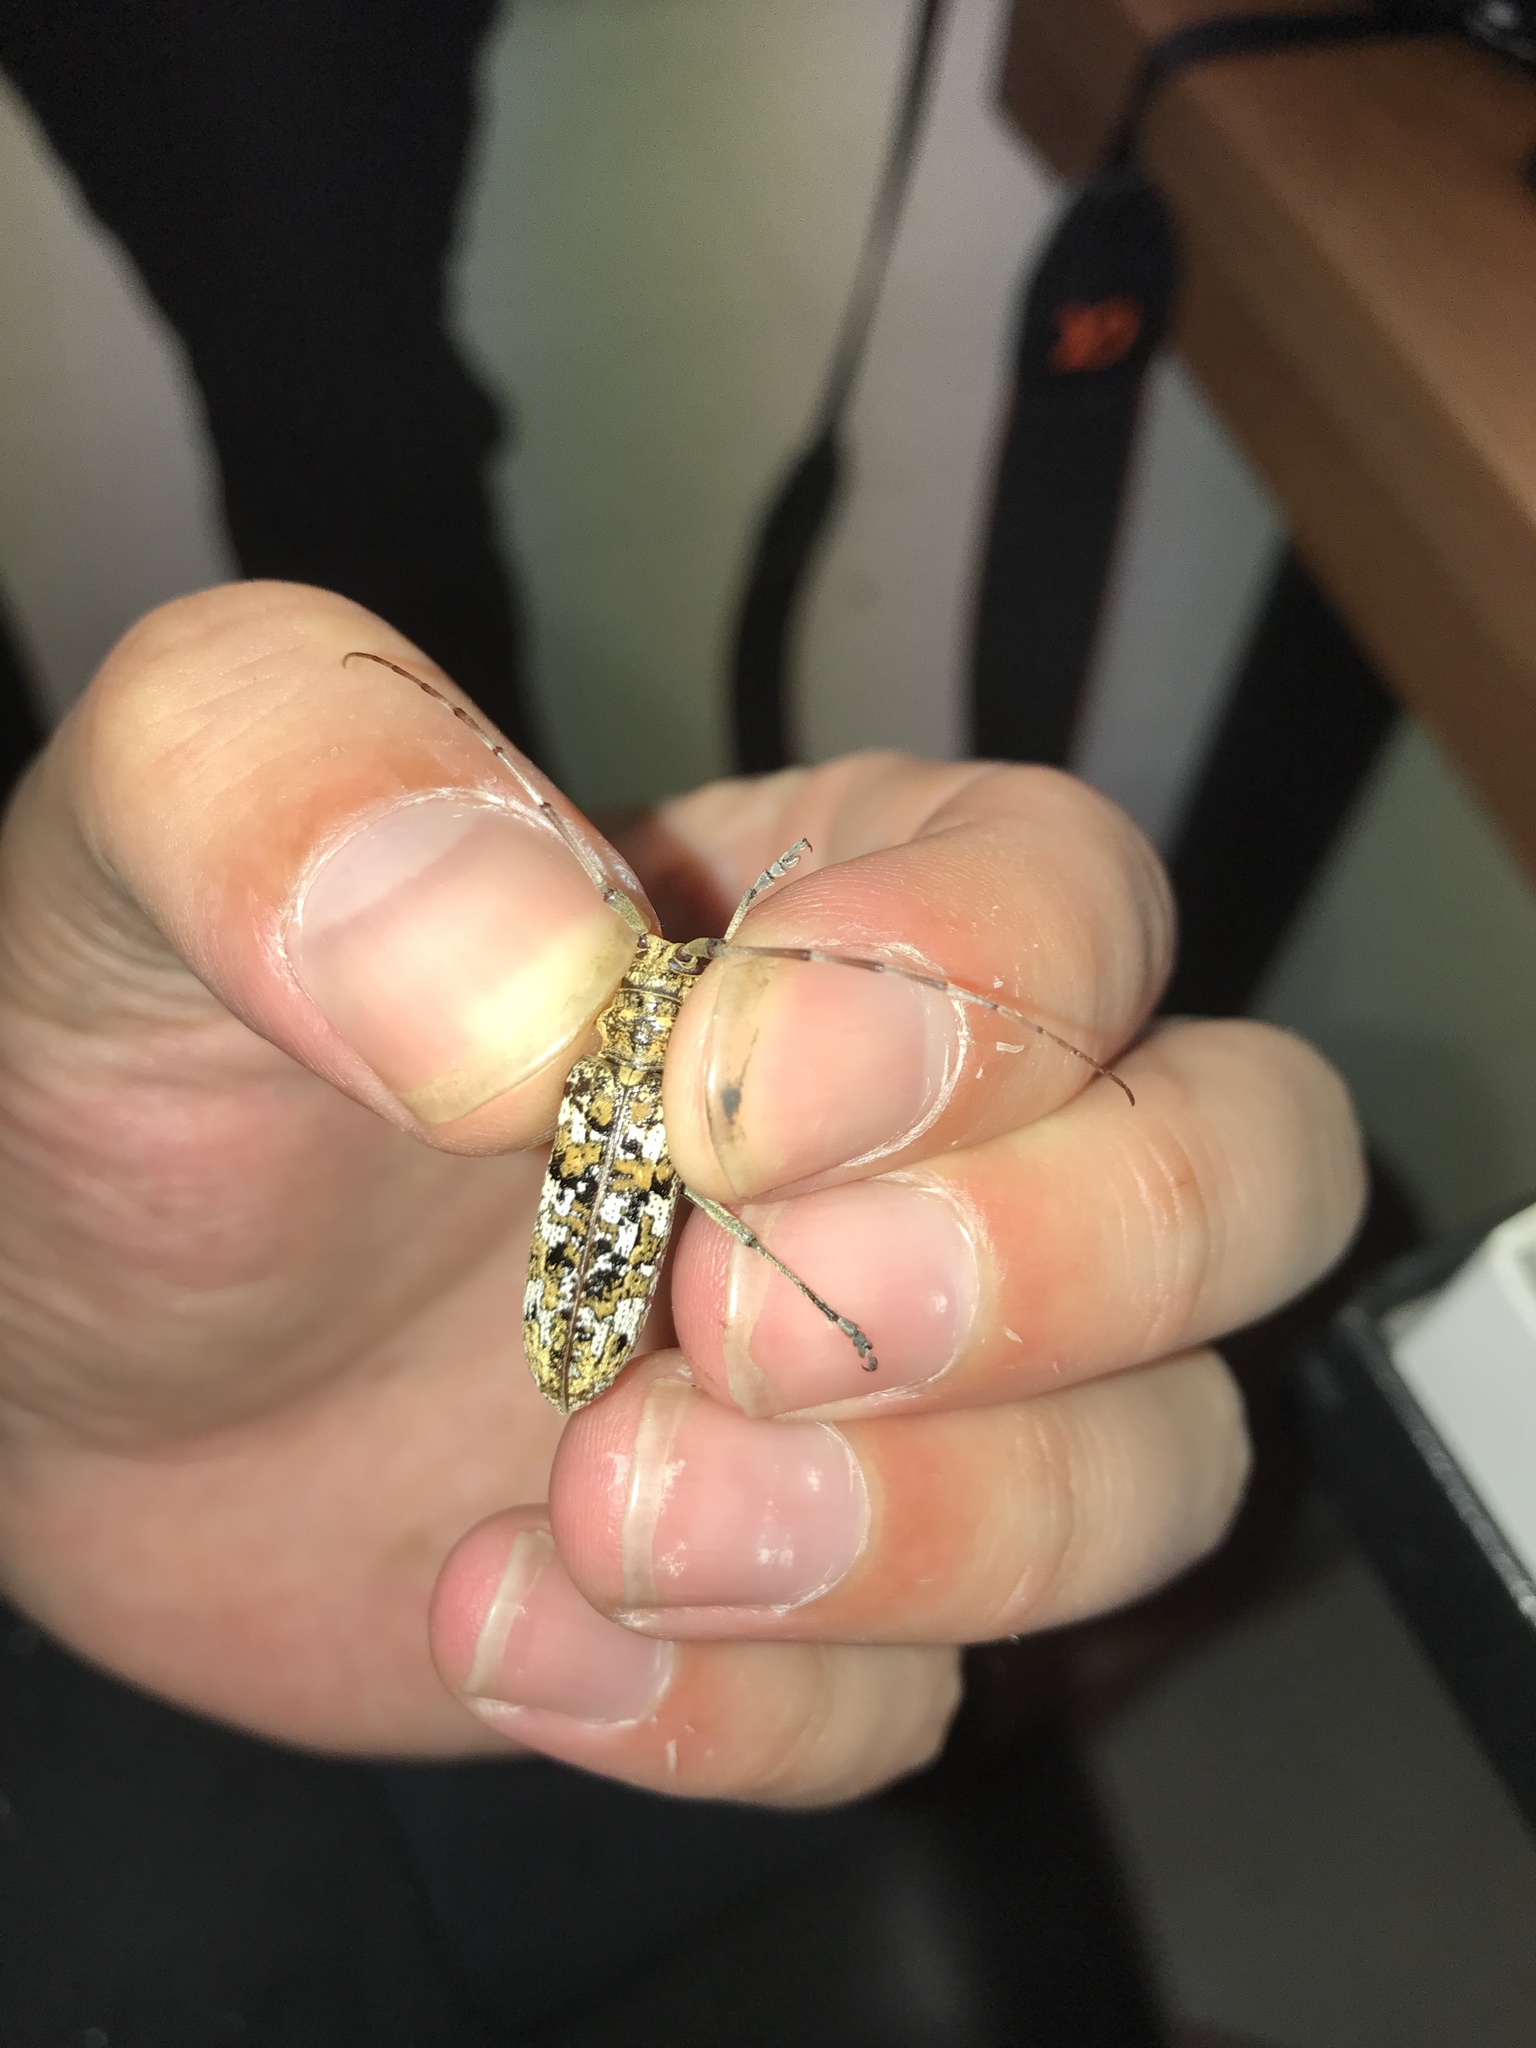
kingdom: Animalia
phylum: Arthropoda
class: Insecta
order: Coleoptera
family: Cerambycidae
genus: Monochamus
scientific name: Monochamus marmorator
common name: Balsam fir sawyer
